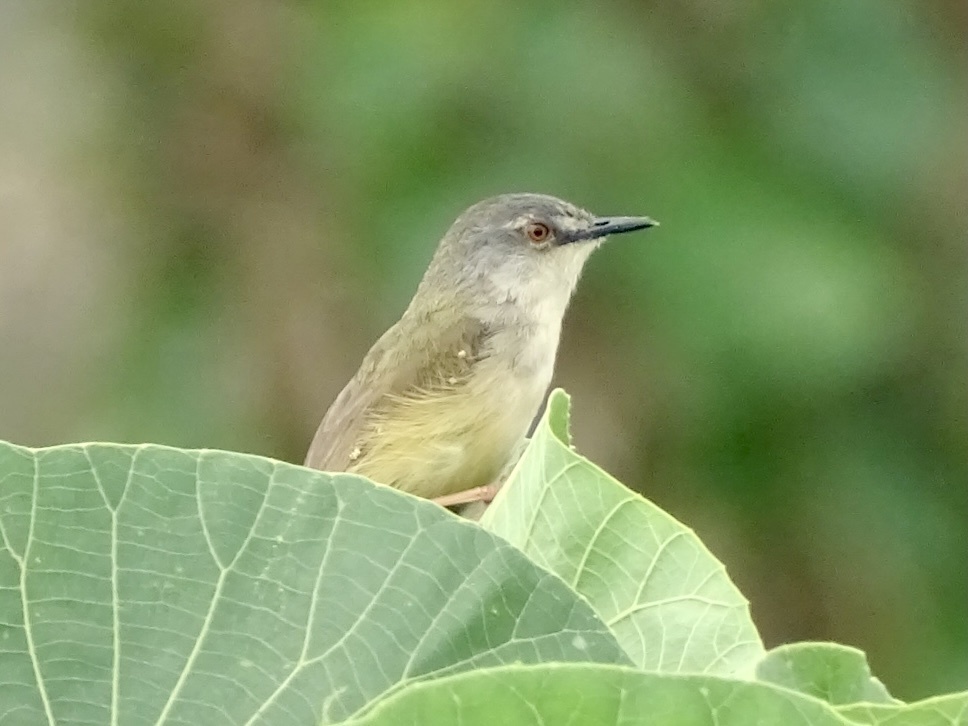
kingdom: Animalia
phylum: Chordata
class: Aves
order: Passeriformes
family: Cisticolidae
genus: Prinia
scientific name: Prinia flaviventris
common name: Yellow-bellied prinia
